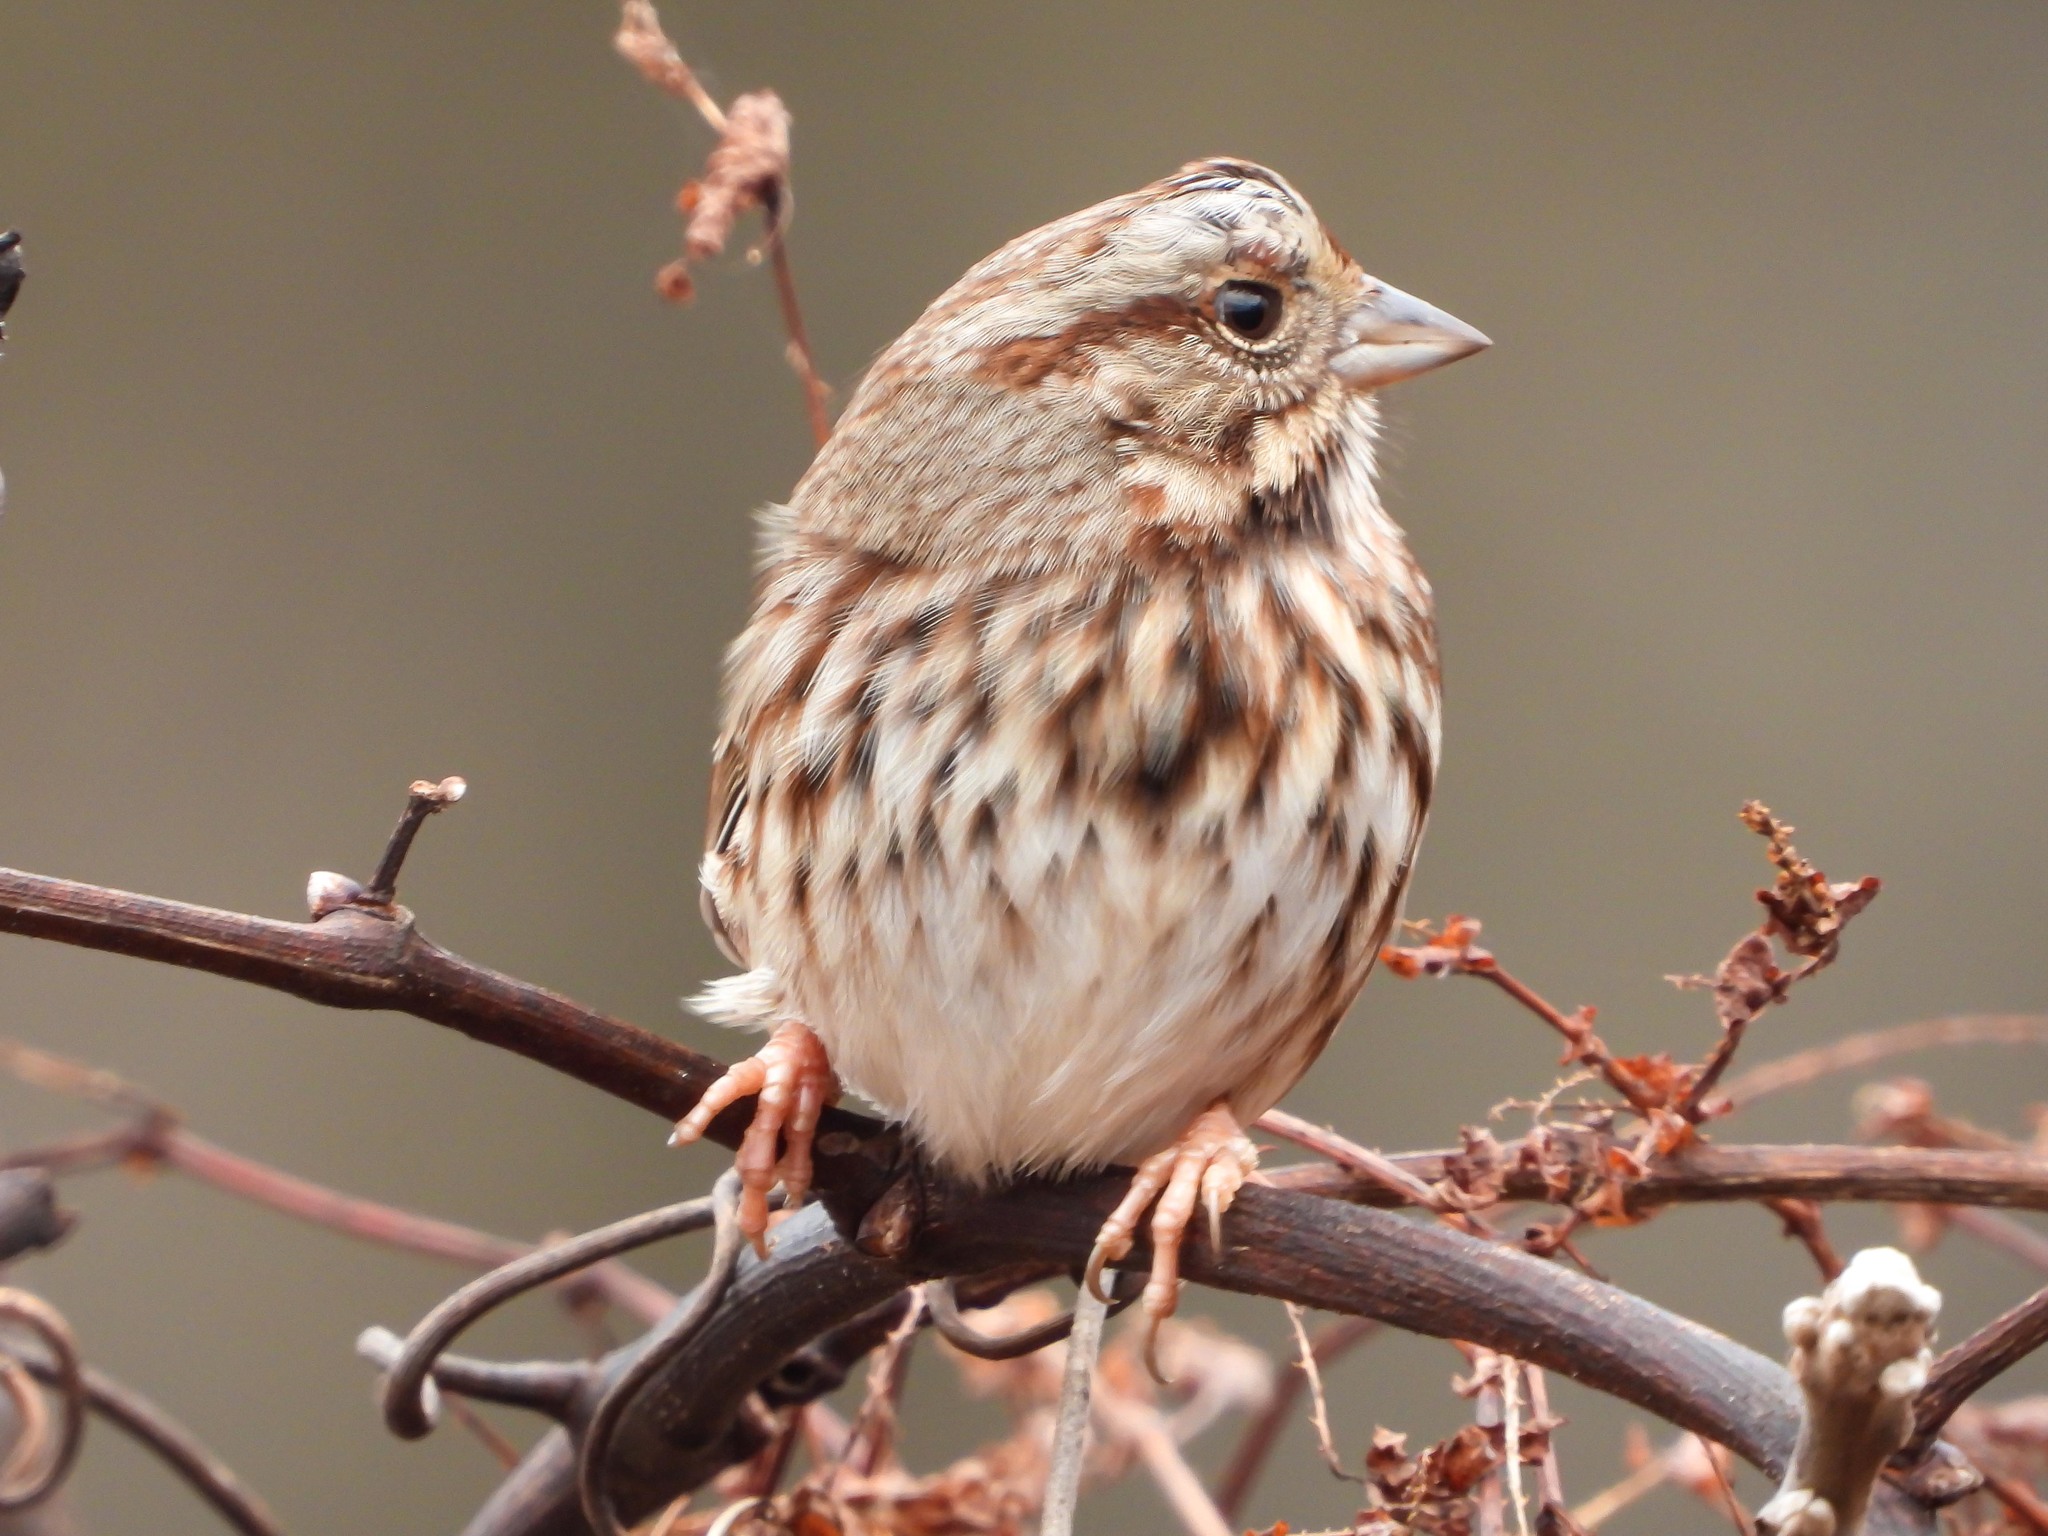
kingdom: Animalia
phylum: Chordata
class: Aves
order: Passeriformes
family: Passerellidae
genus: Melospiza
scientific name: Melospiza melodia
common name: Song sparrow
